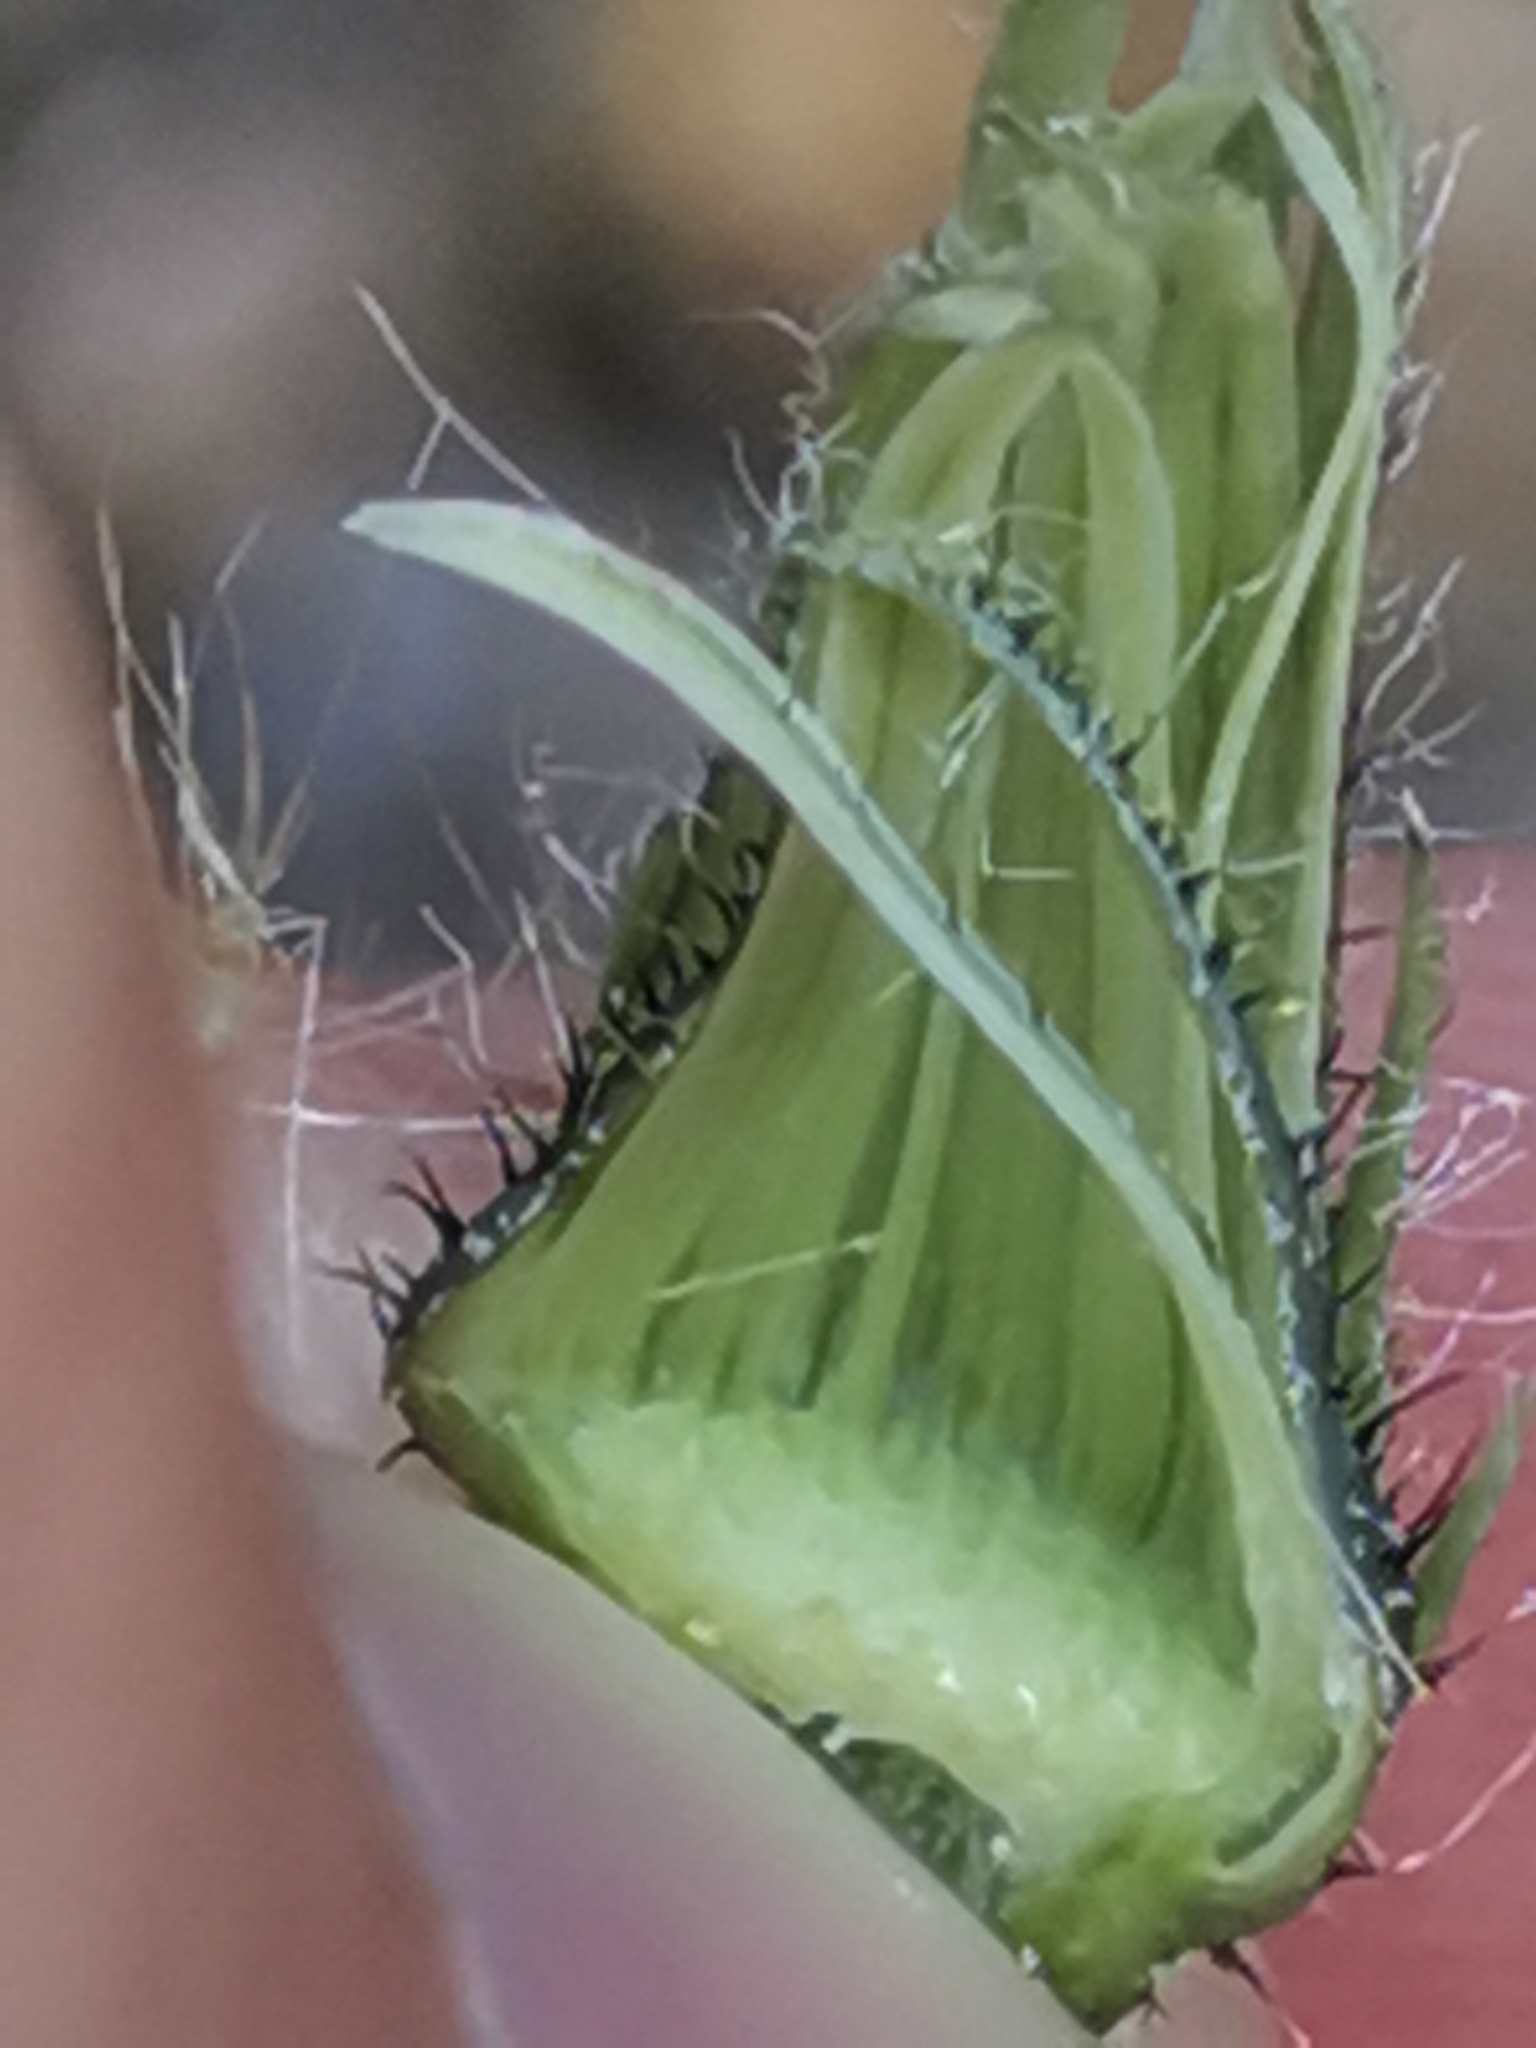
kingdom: Plantae
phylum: Tracheophyta
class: Magnoliopsida
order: Asterales
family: Asteraceae
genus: Hieracium
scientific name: Hieracium bupleuroides
